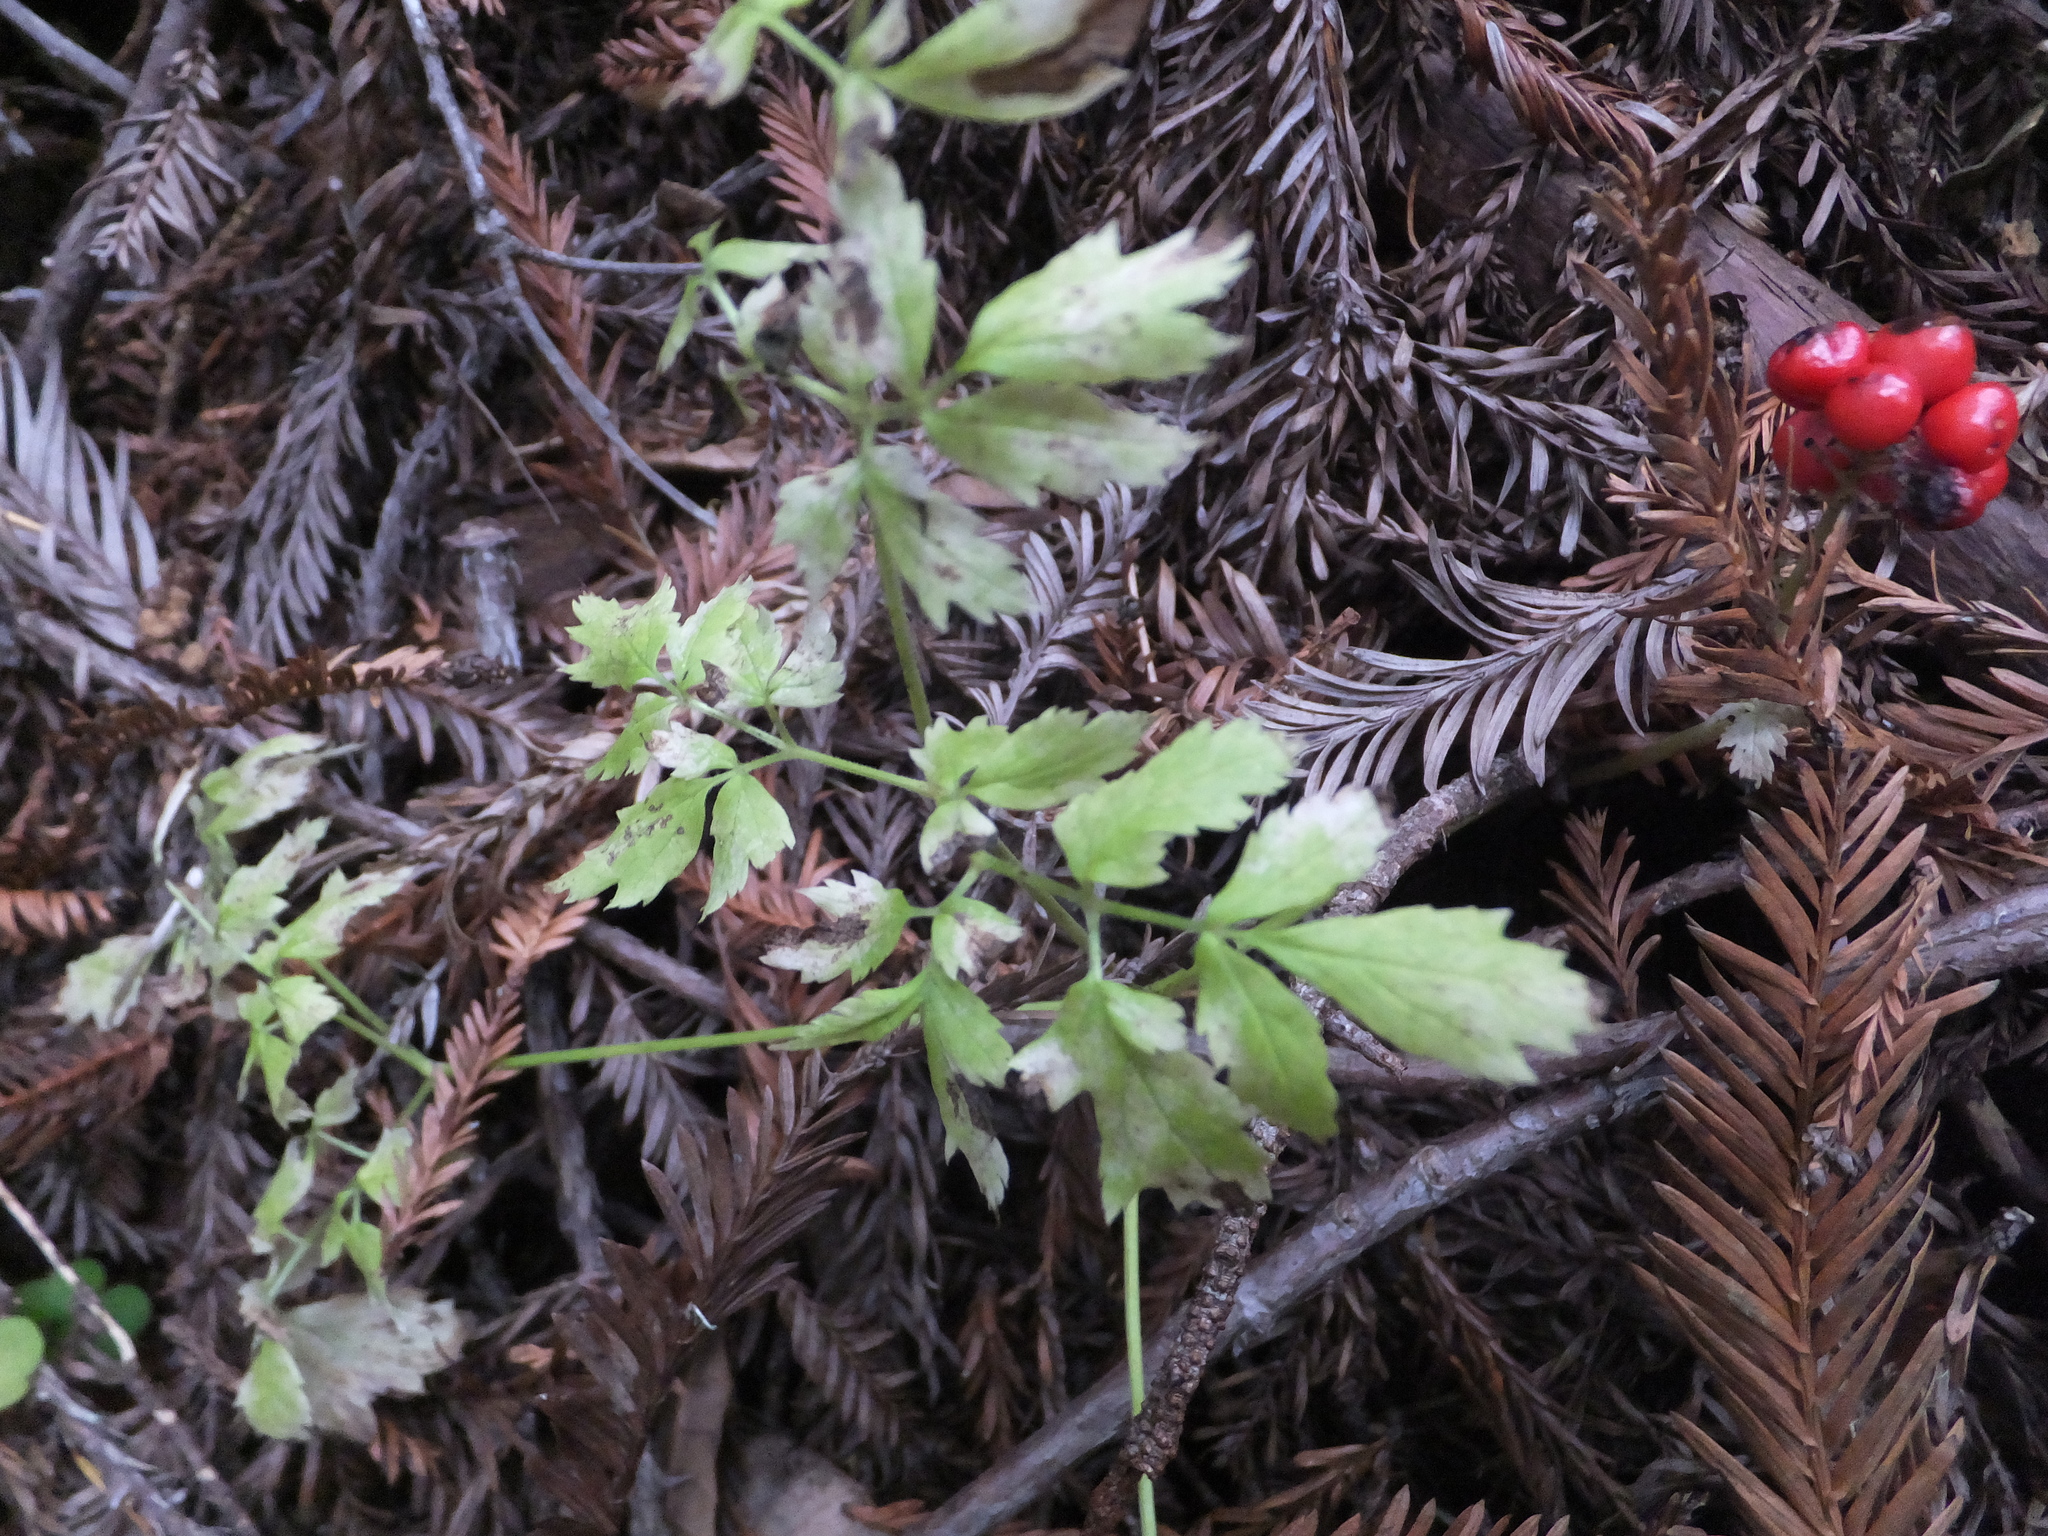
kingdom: Plantae
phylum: Tracheophyta
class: Magnoliopsida
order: Ranunculales
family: Ranunculaceae
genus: Actaea
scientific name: Actaea rubra
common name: Red baneberry
